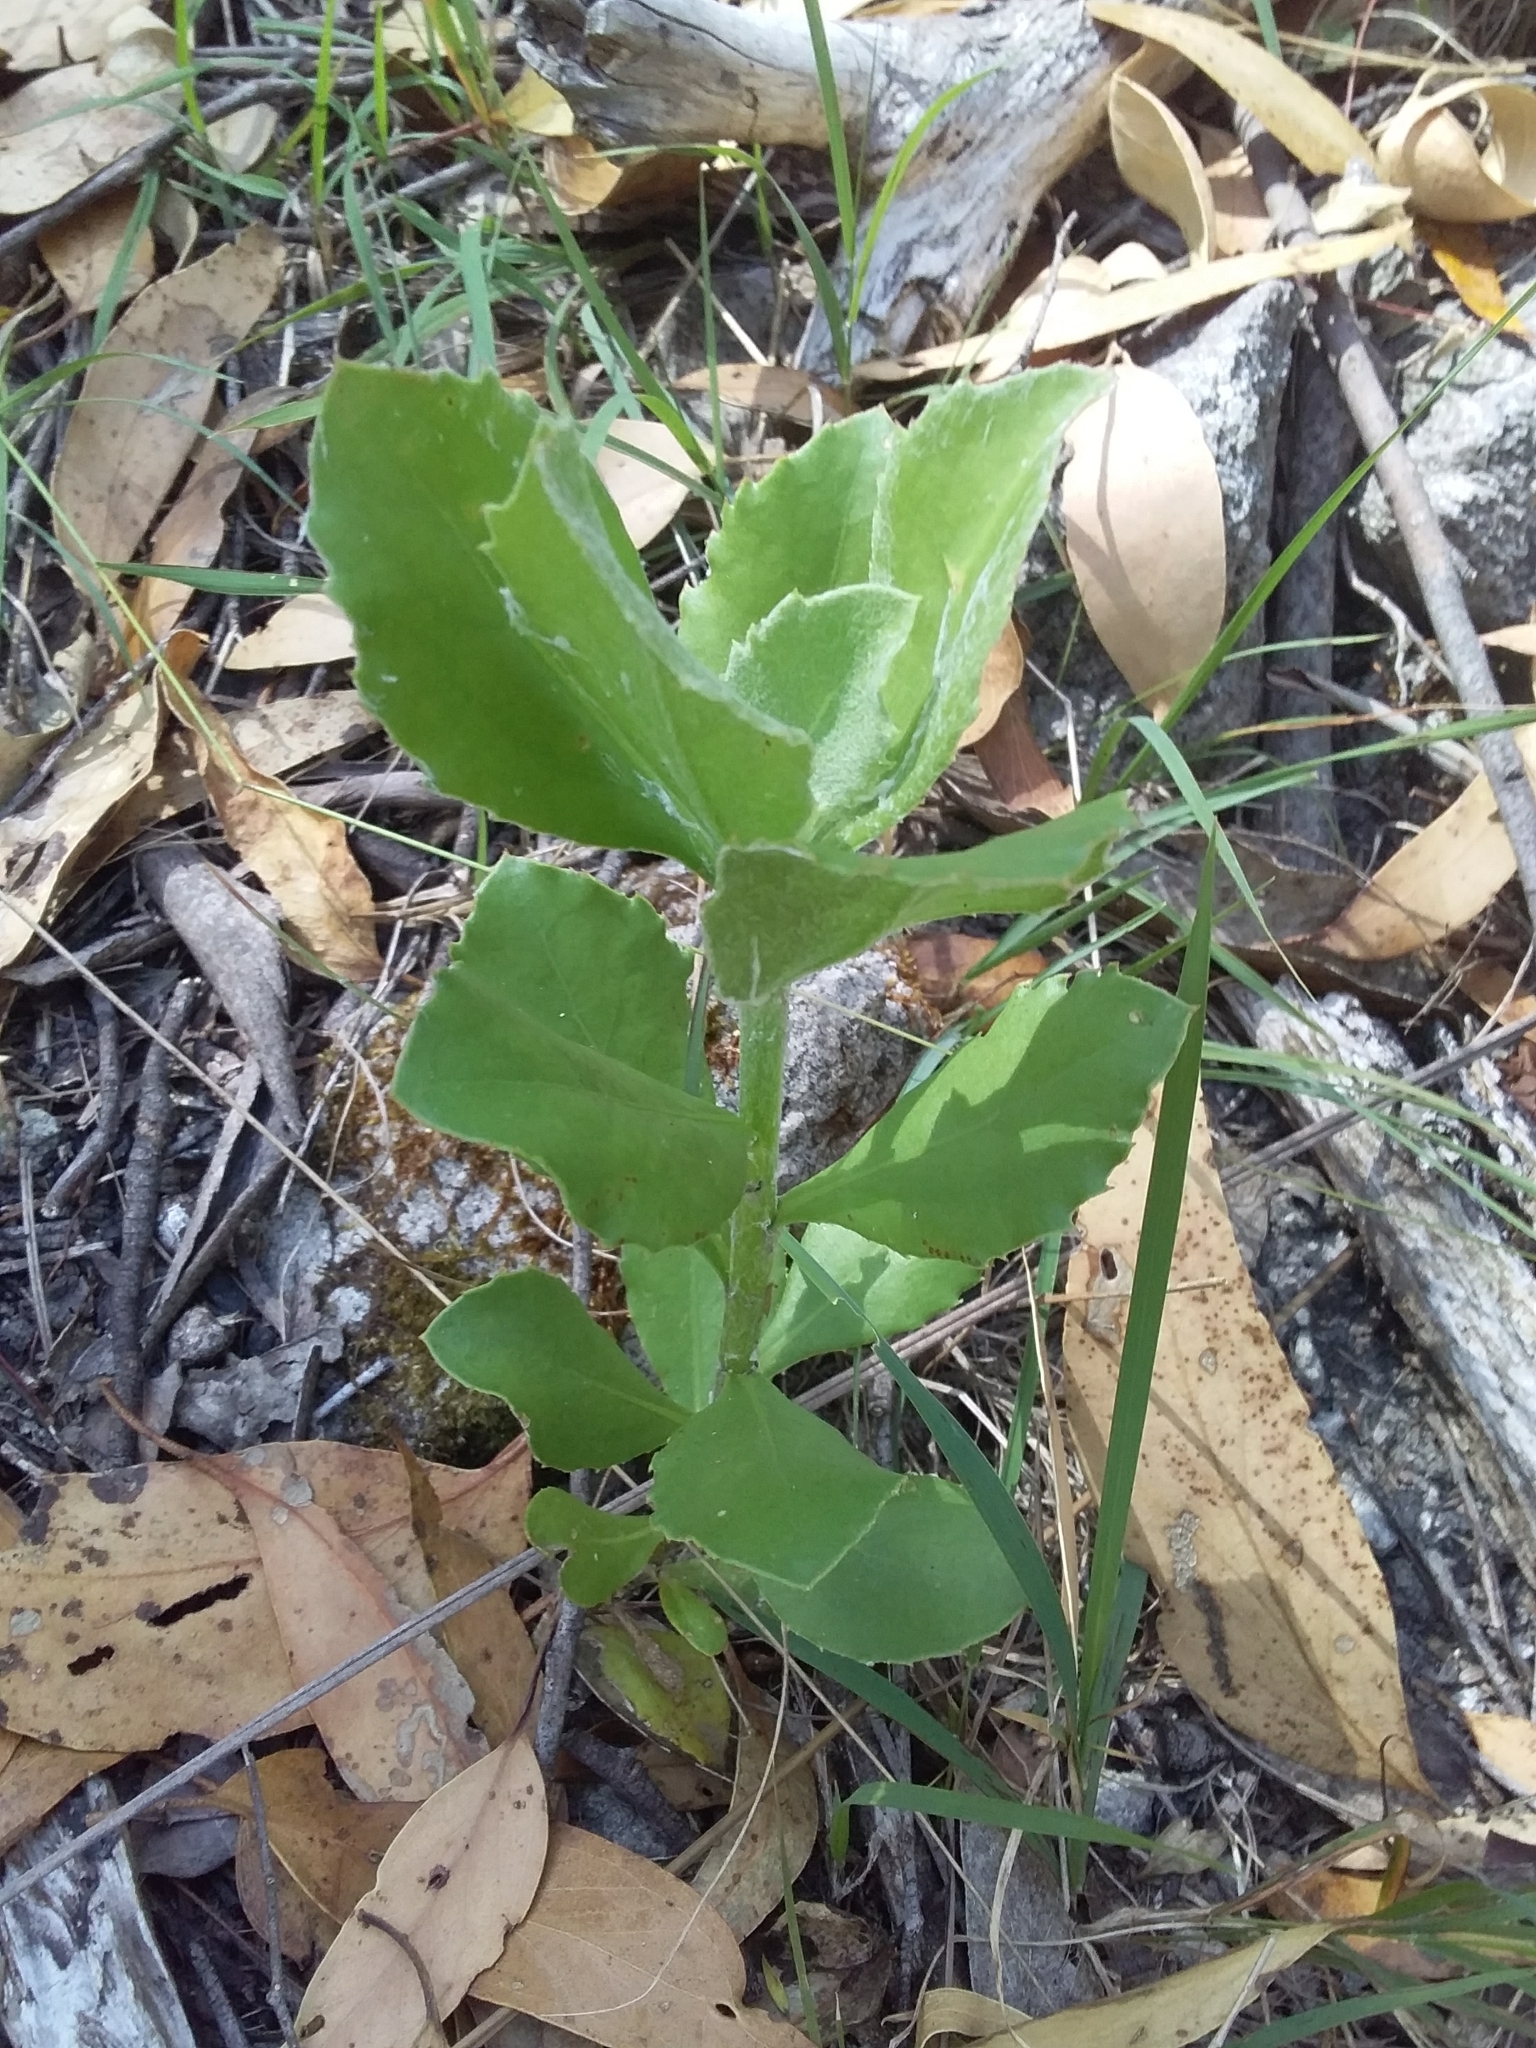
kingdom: Plantae
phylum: Tracheophyta
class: Magnoliopsida
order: Asterales
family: Asteraceae
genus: Osteospermum
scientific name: Osteospermum moniliferum
